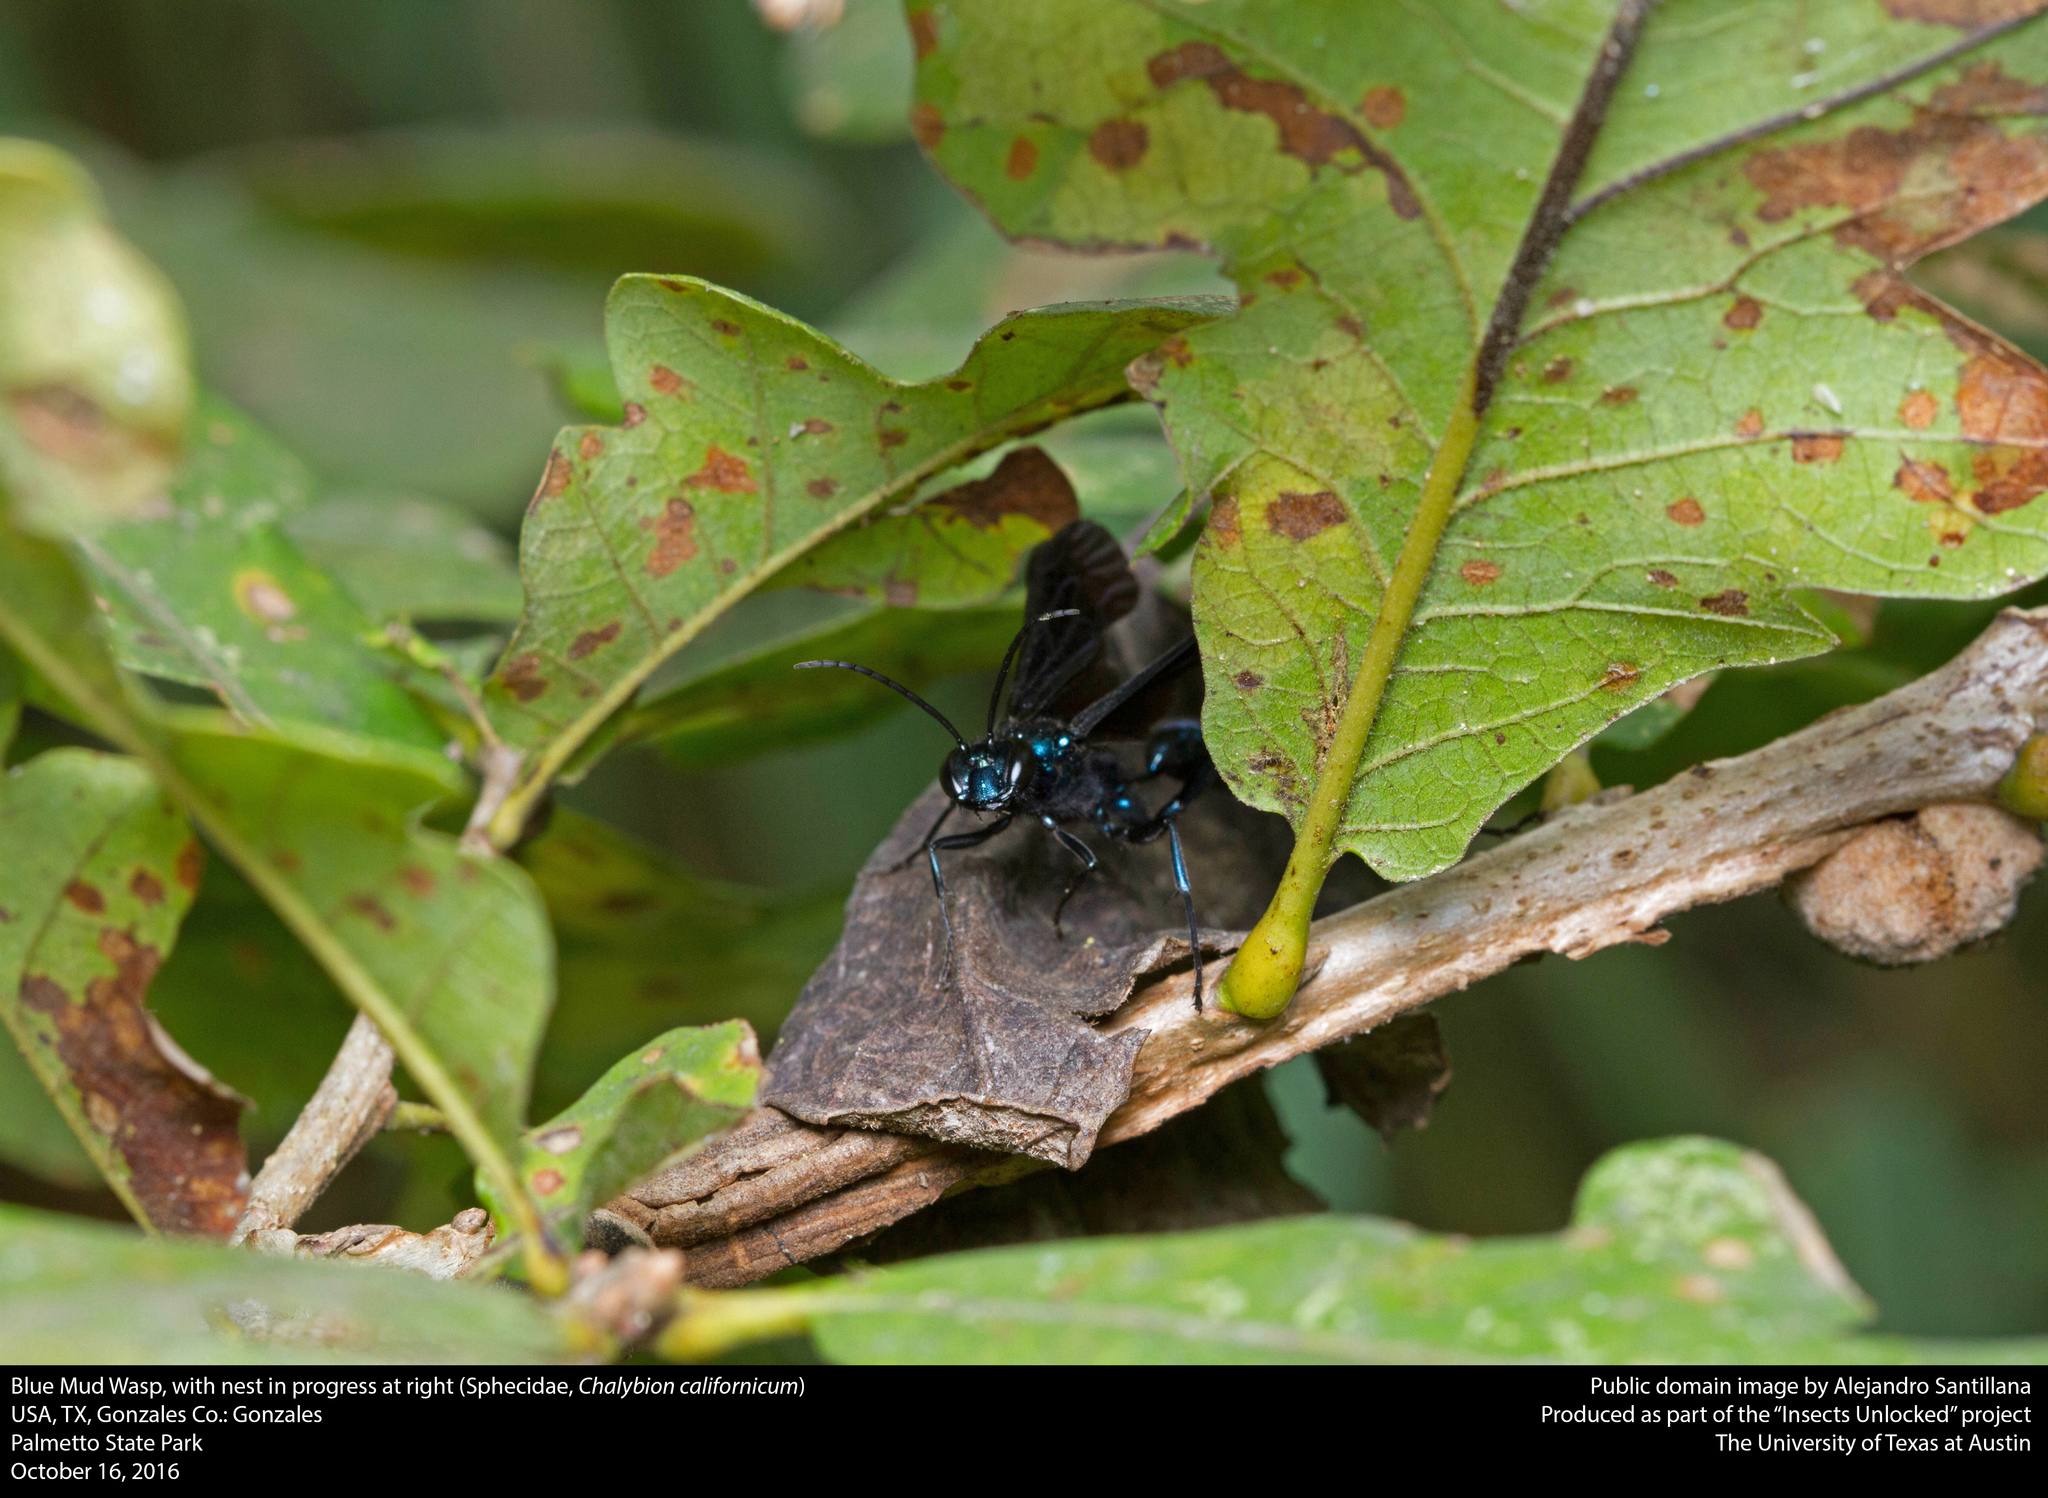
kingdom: Animalia
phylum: Arthropoda
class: Insecta
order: Hymenoptera
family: Sphecidae
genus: Chalybion
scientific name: Chalybion californicum
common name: Mud dauber
